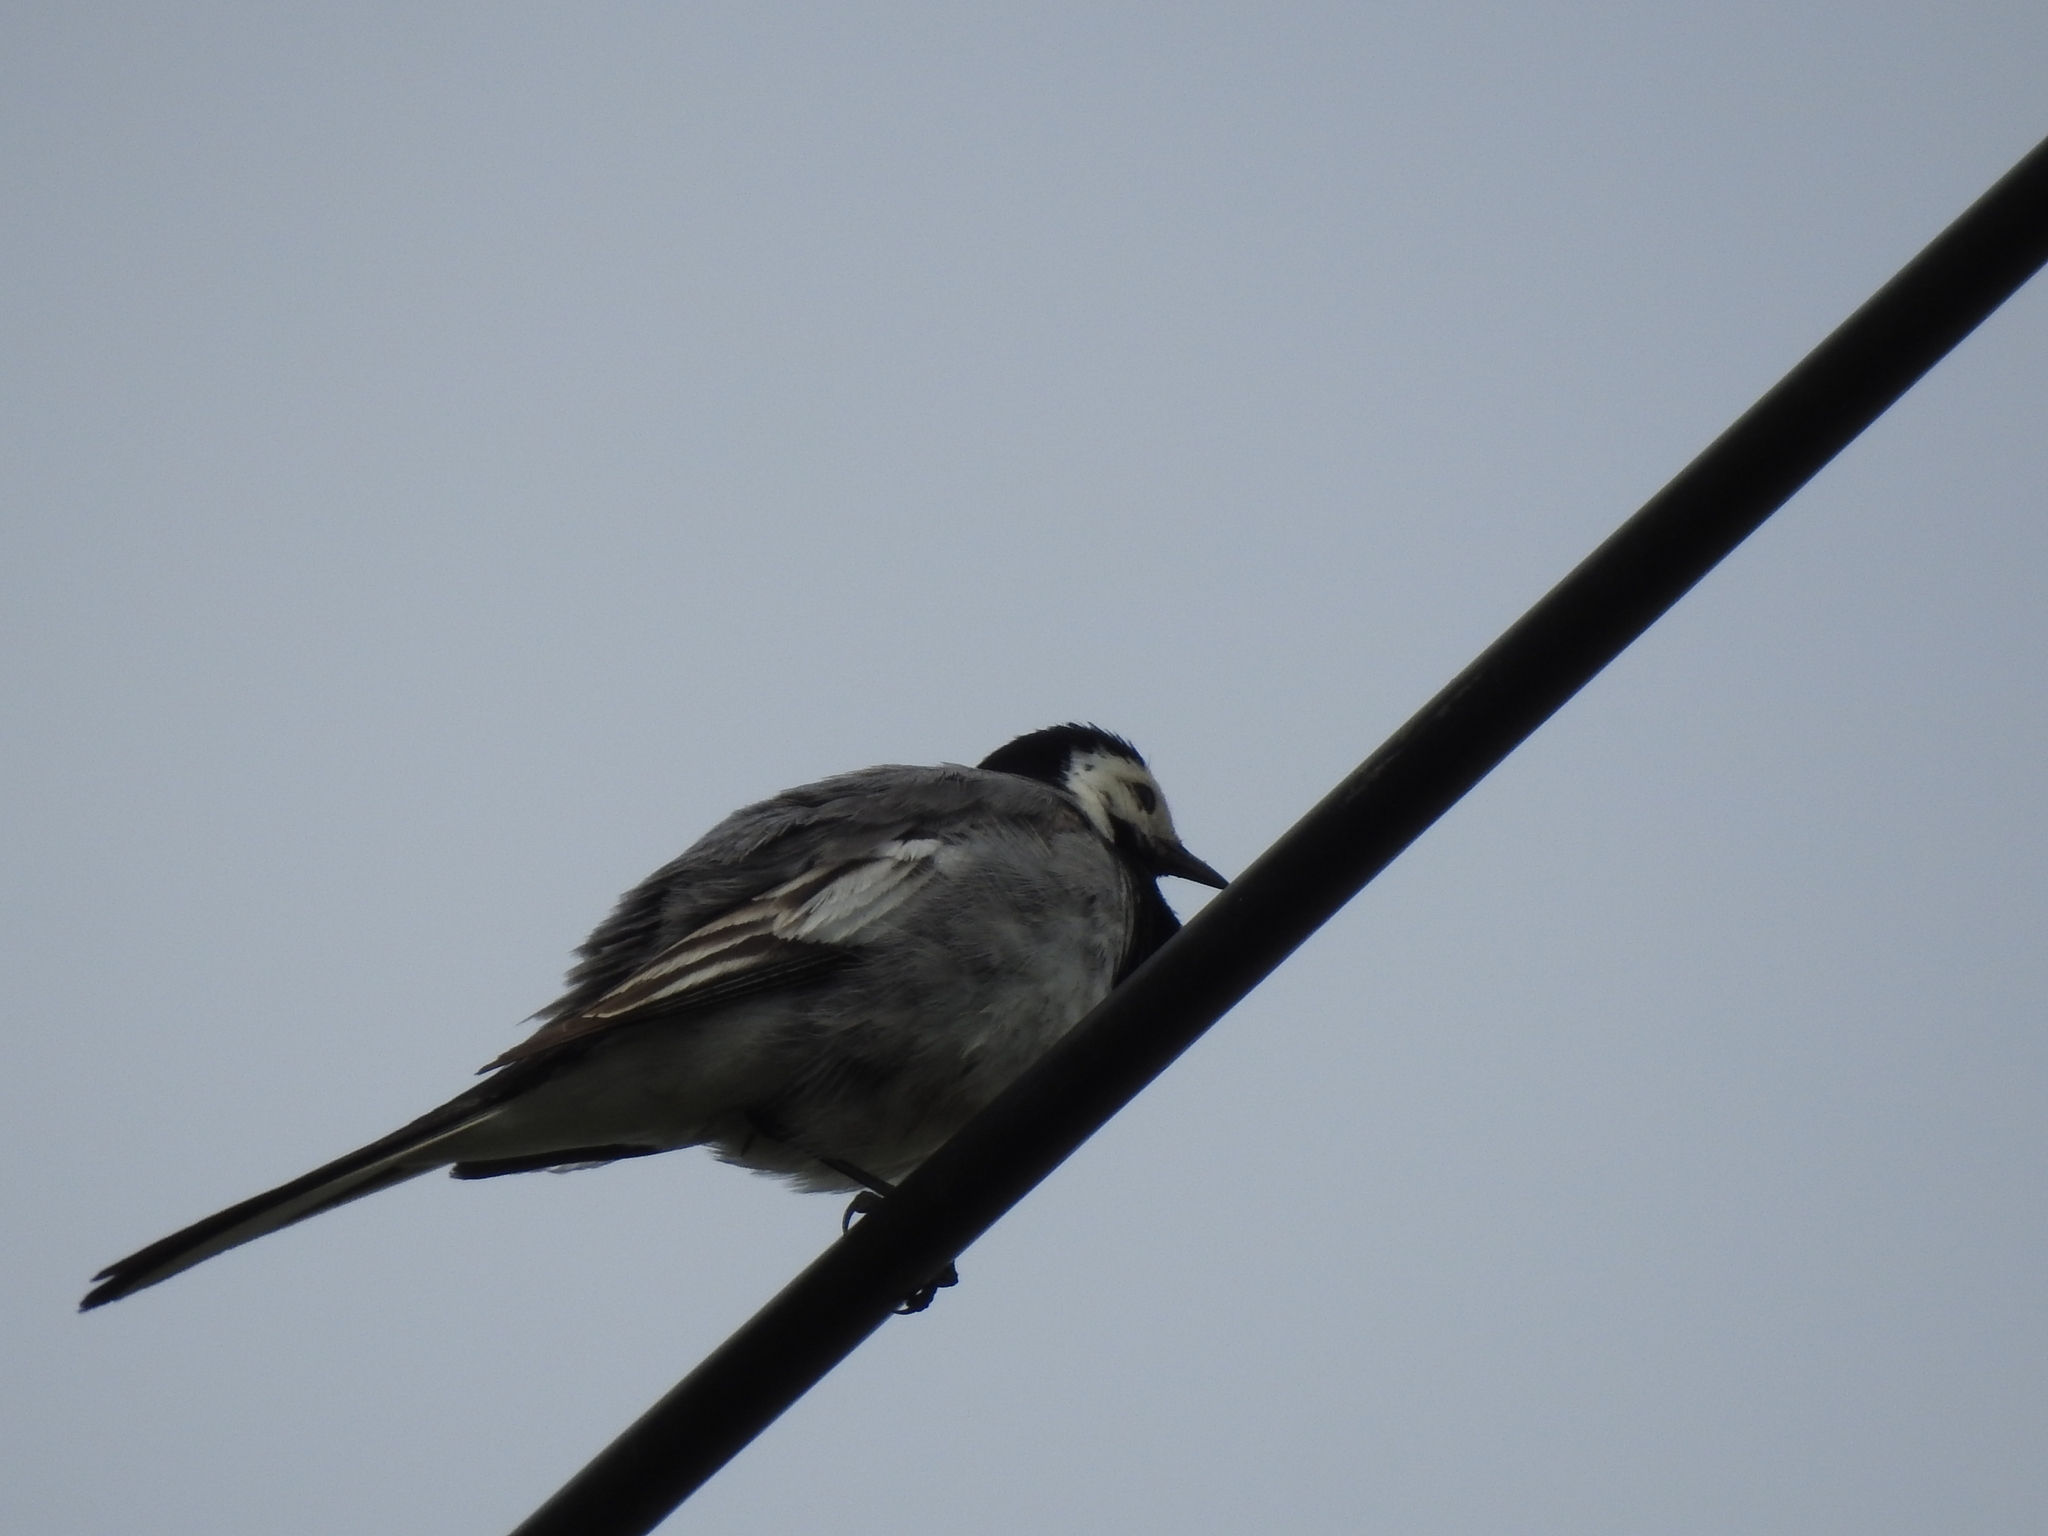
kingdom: Animalia
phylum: Chordata
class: Aves
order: Passeriformes
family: Motacillidae
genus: Motacilla
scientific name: Motacilla alba
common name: White wagtail
